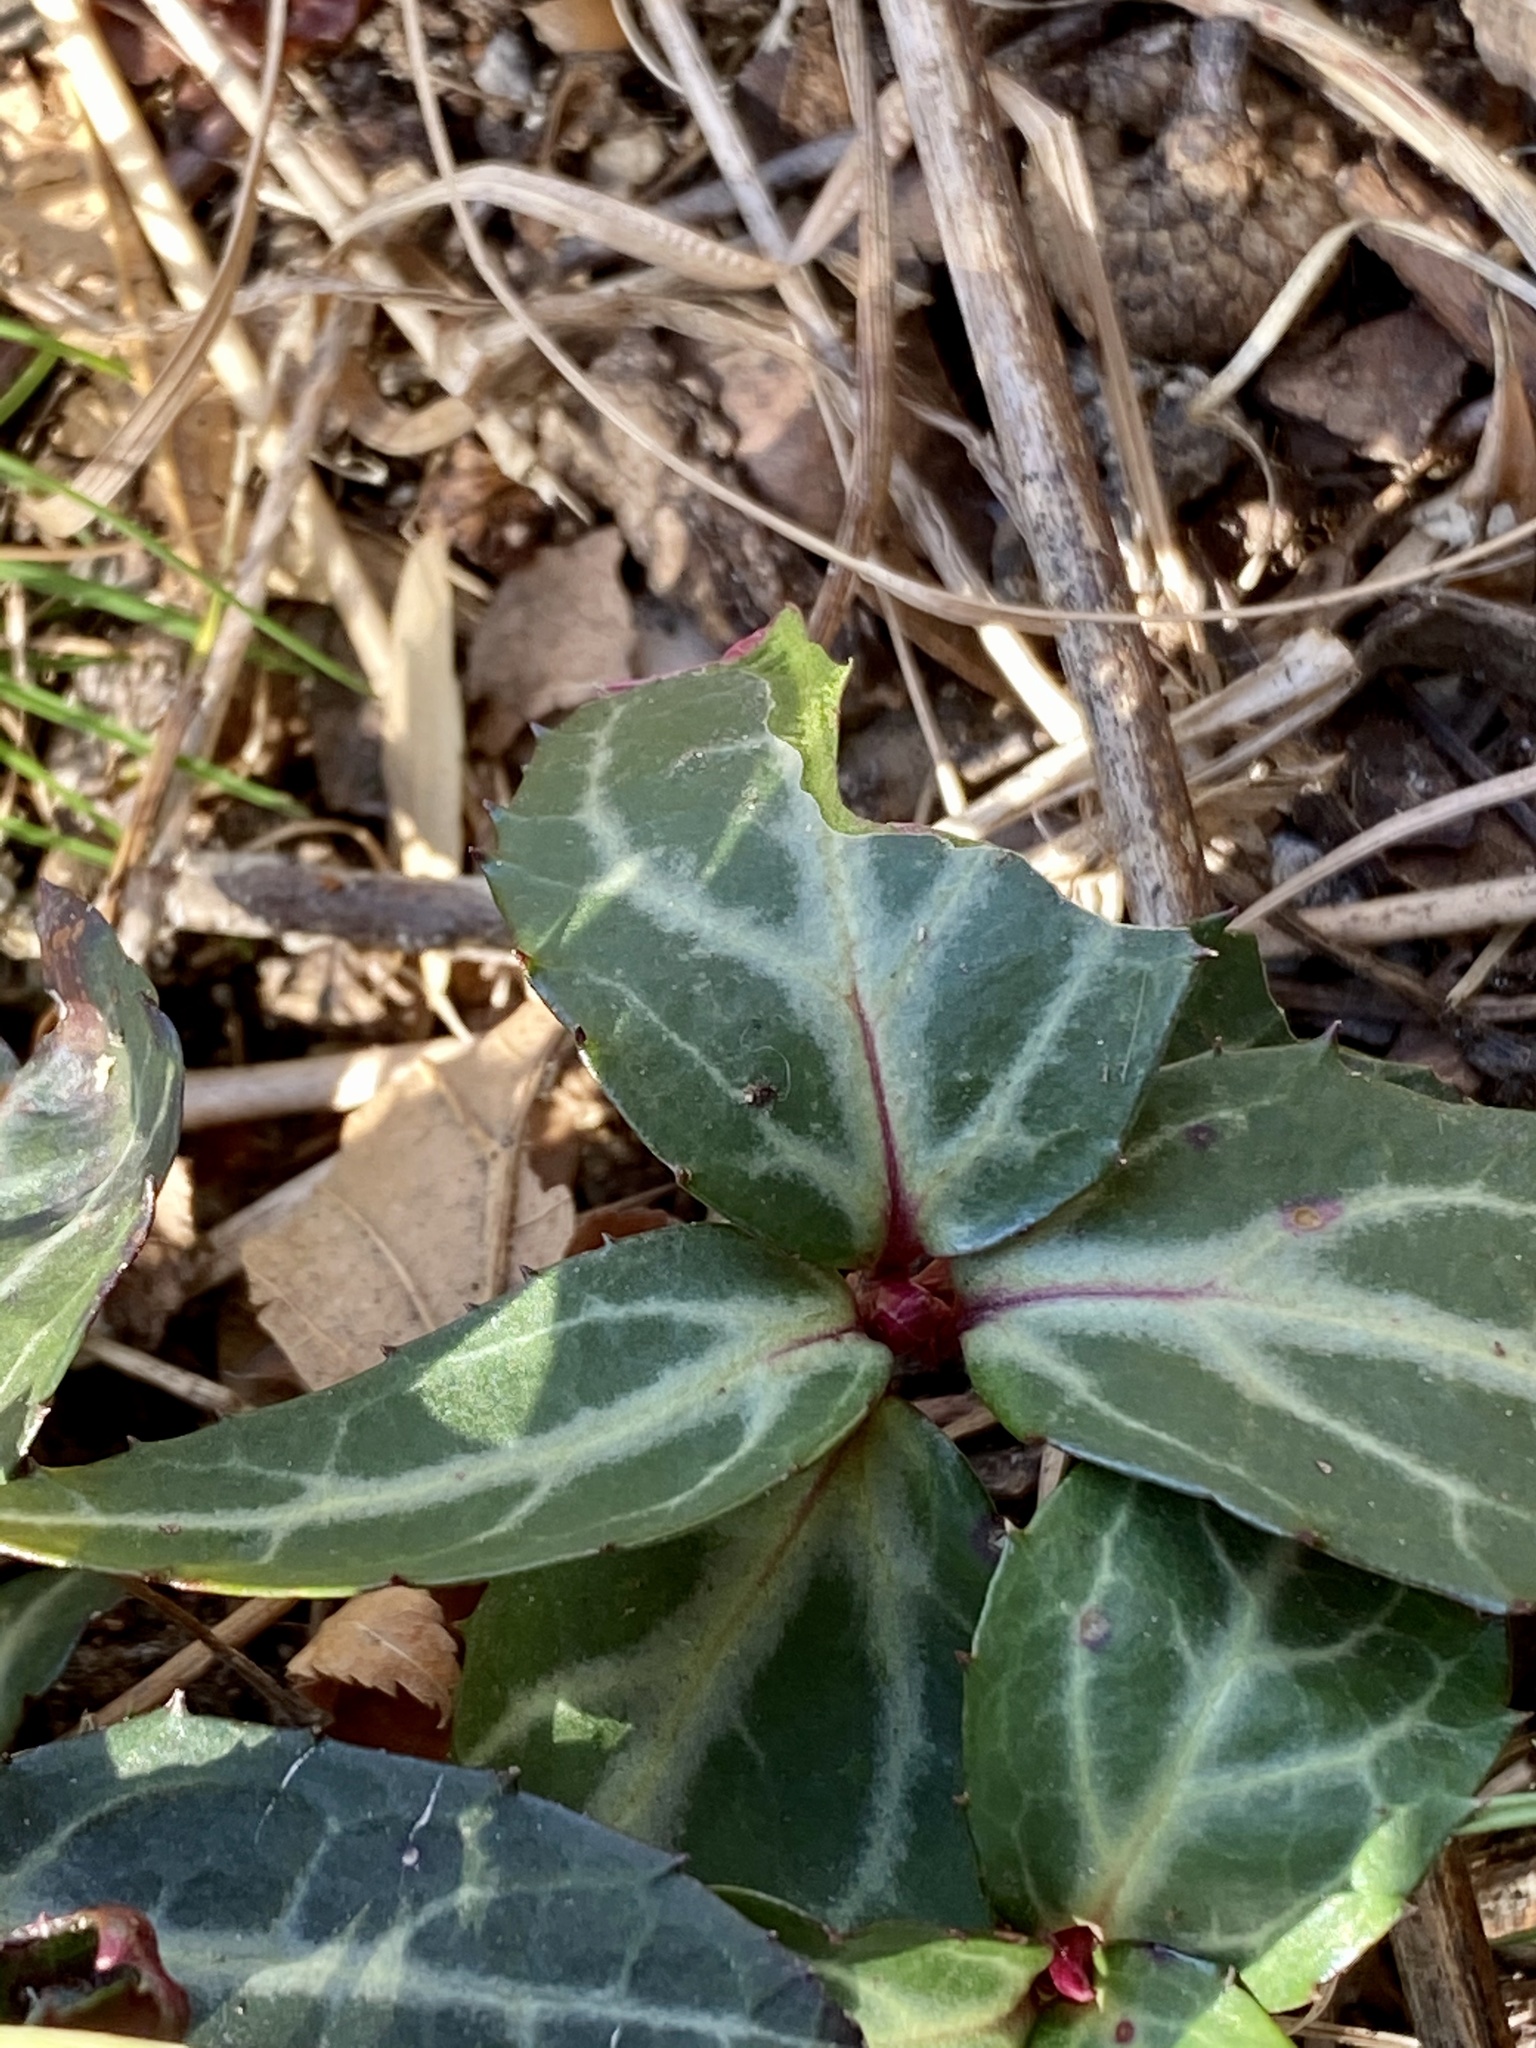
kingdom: Plantae
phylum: Tracheophyta
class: Magnoliopsida
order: Ericales
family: Ericaceae
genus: Chimaphila
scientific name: Chimaphila maculata
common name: Spotted pipsissewa
